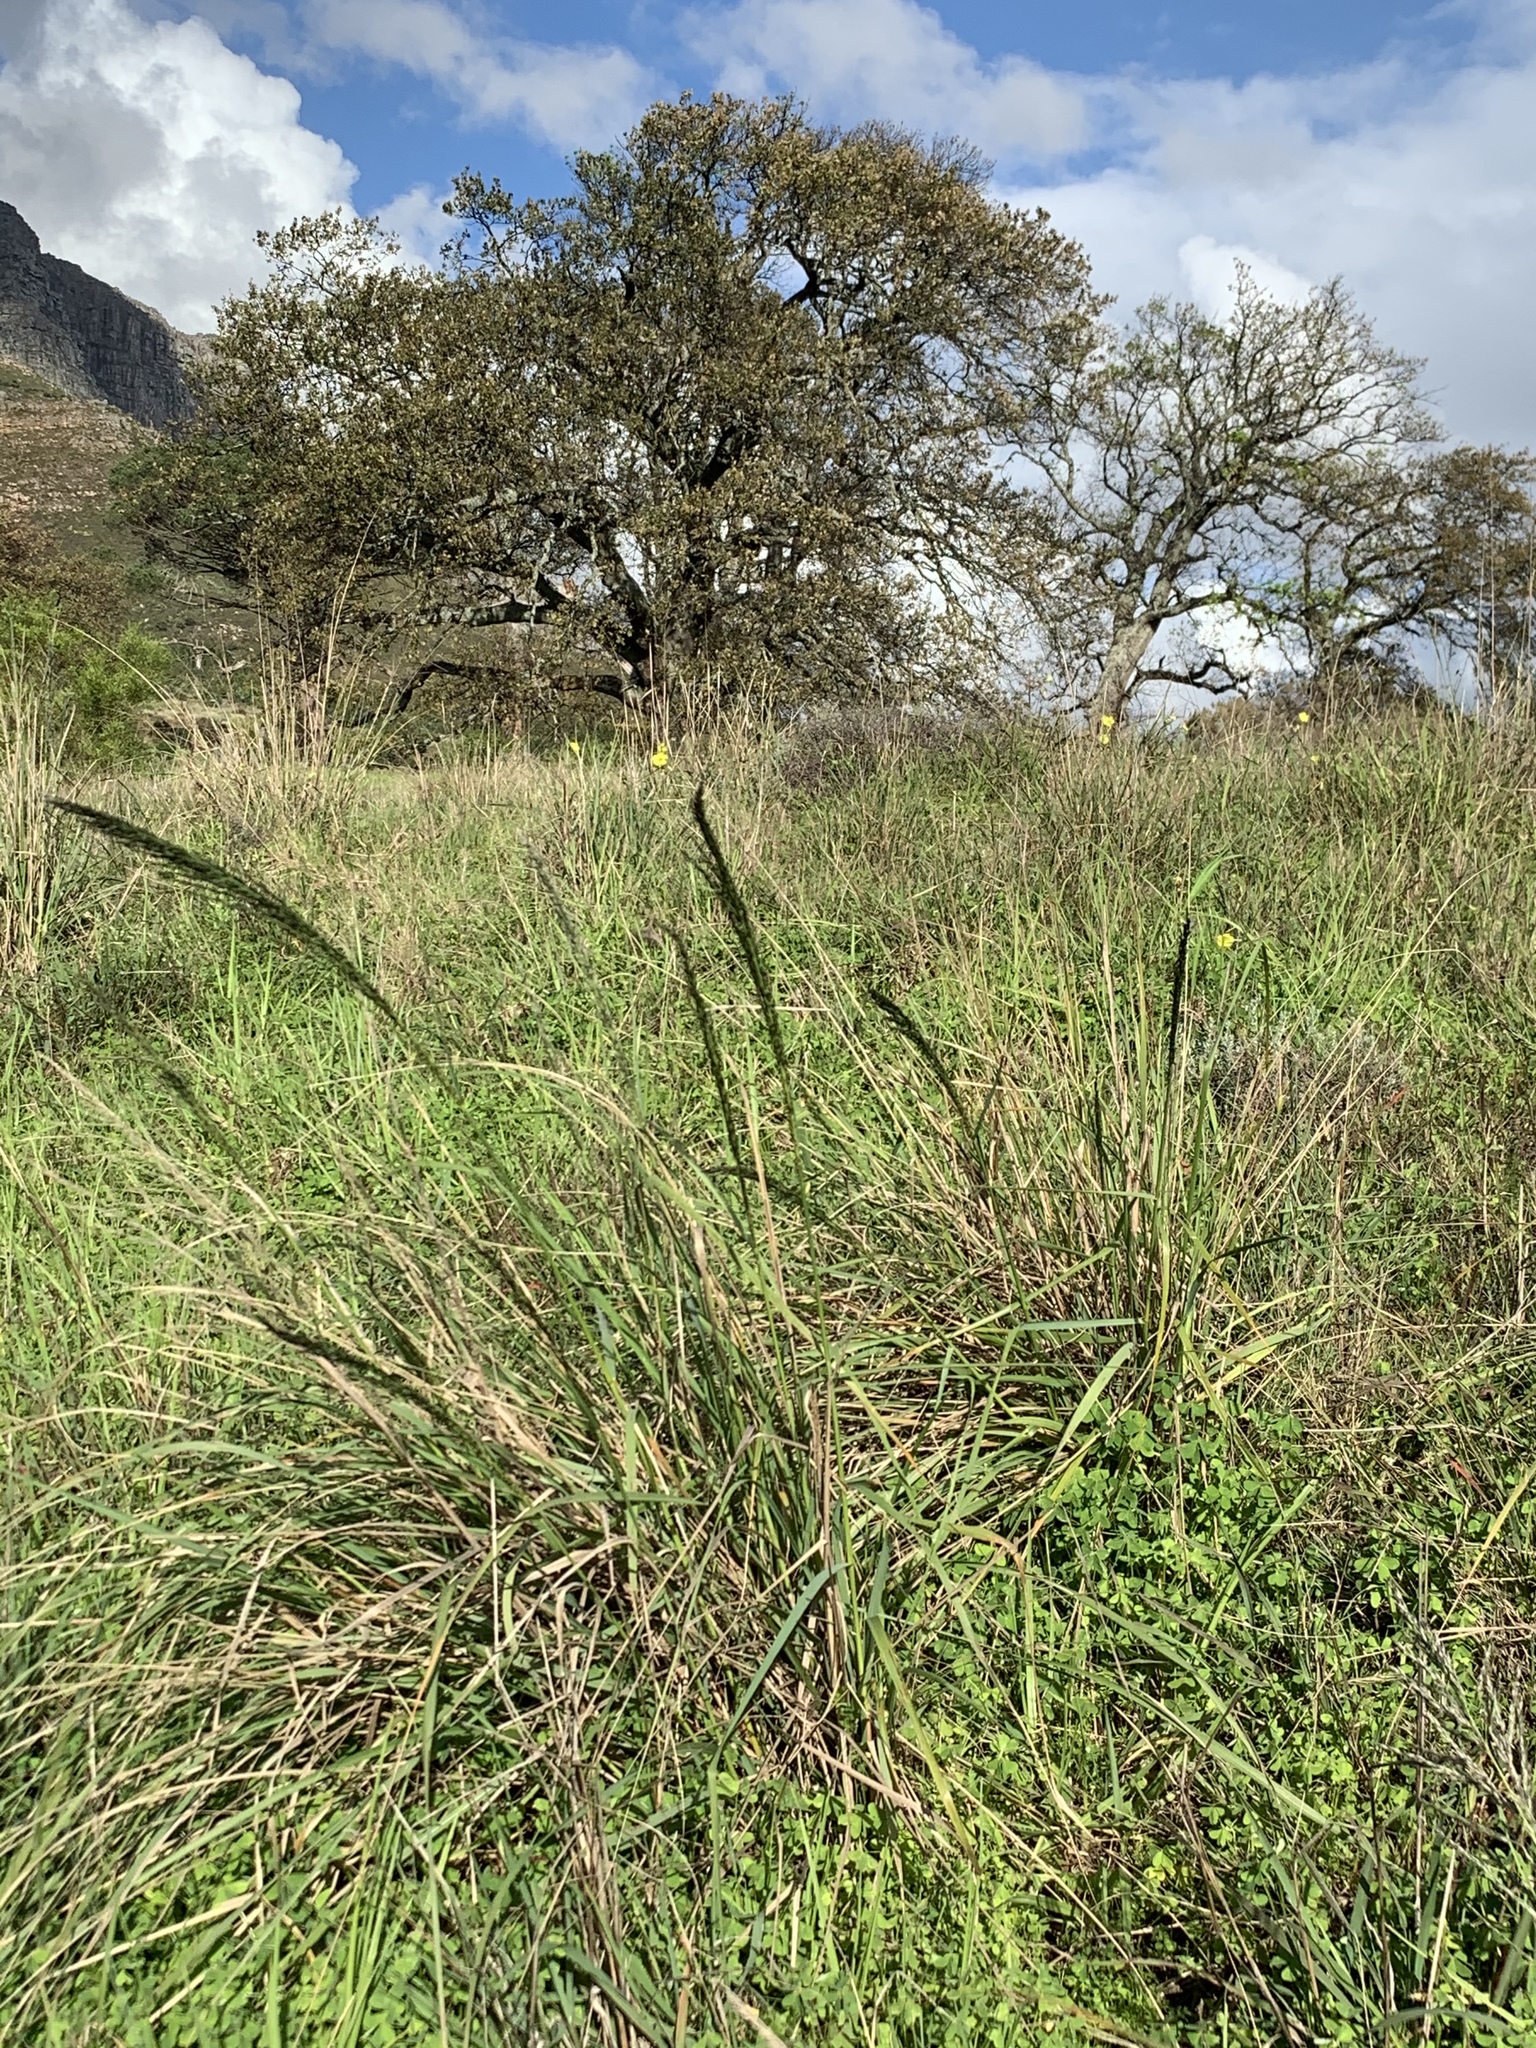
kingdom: Plantae
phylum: Tracheophyta
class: Liliopsida
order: Poales
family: Poaceae
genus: Eragrostis
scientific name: Eragrostis curvula
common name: African love-grass
